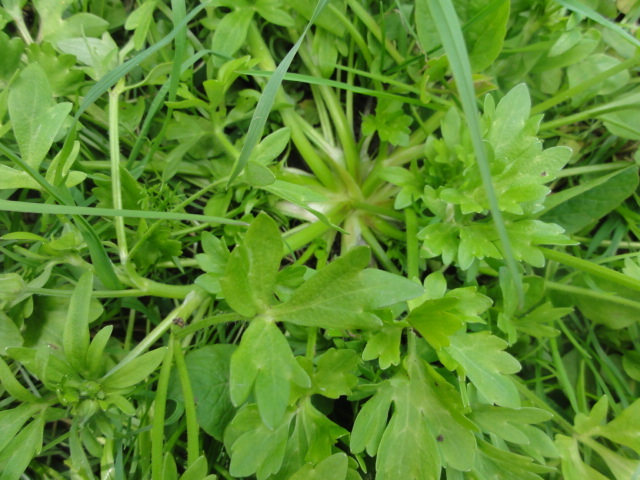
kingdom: Plantae
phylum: Tracheophyta
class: Magnoliopsida
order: Ranunculales
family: Ranunculaceae
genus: Ranunculus
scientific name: Ranunculus bulbosus
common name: Bulbous buttercup
